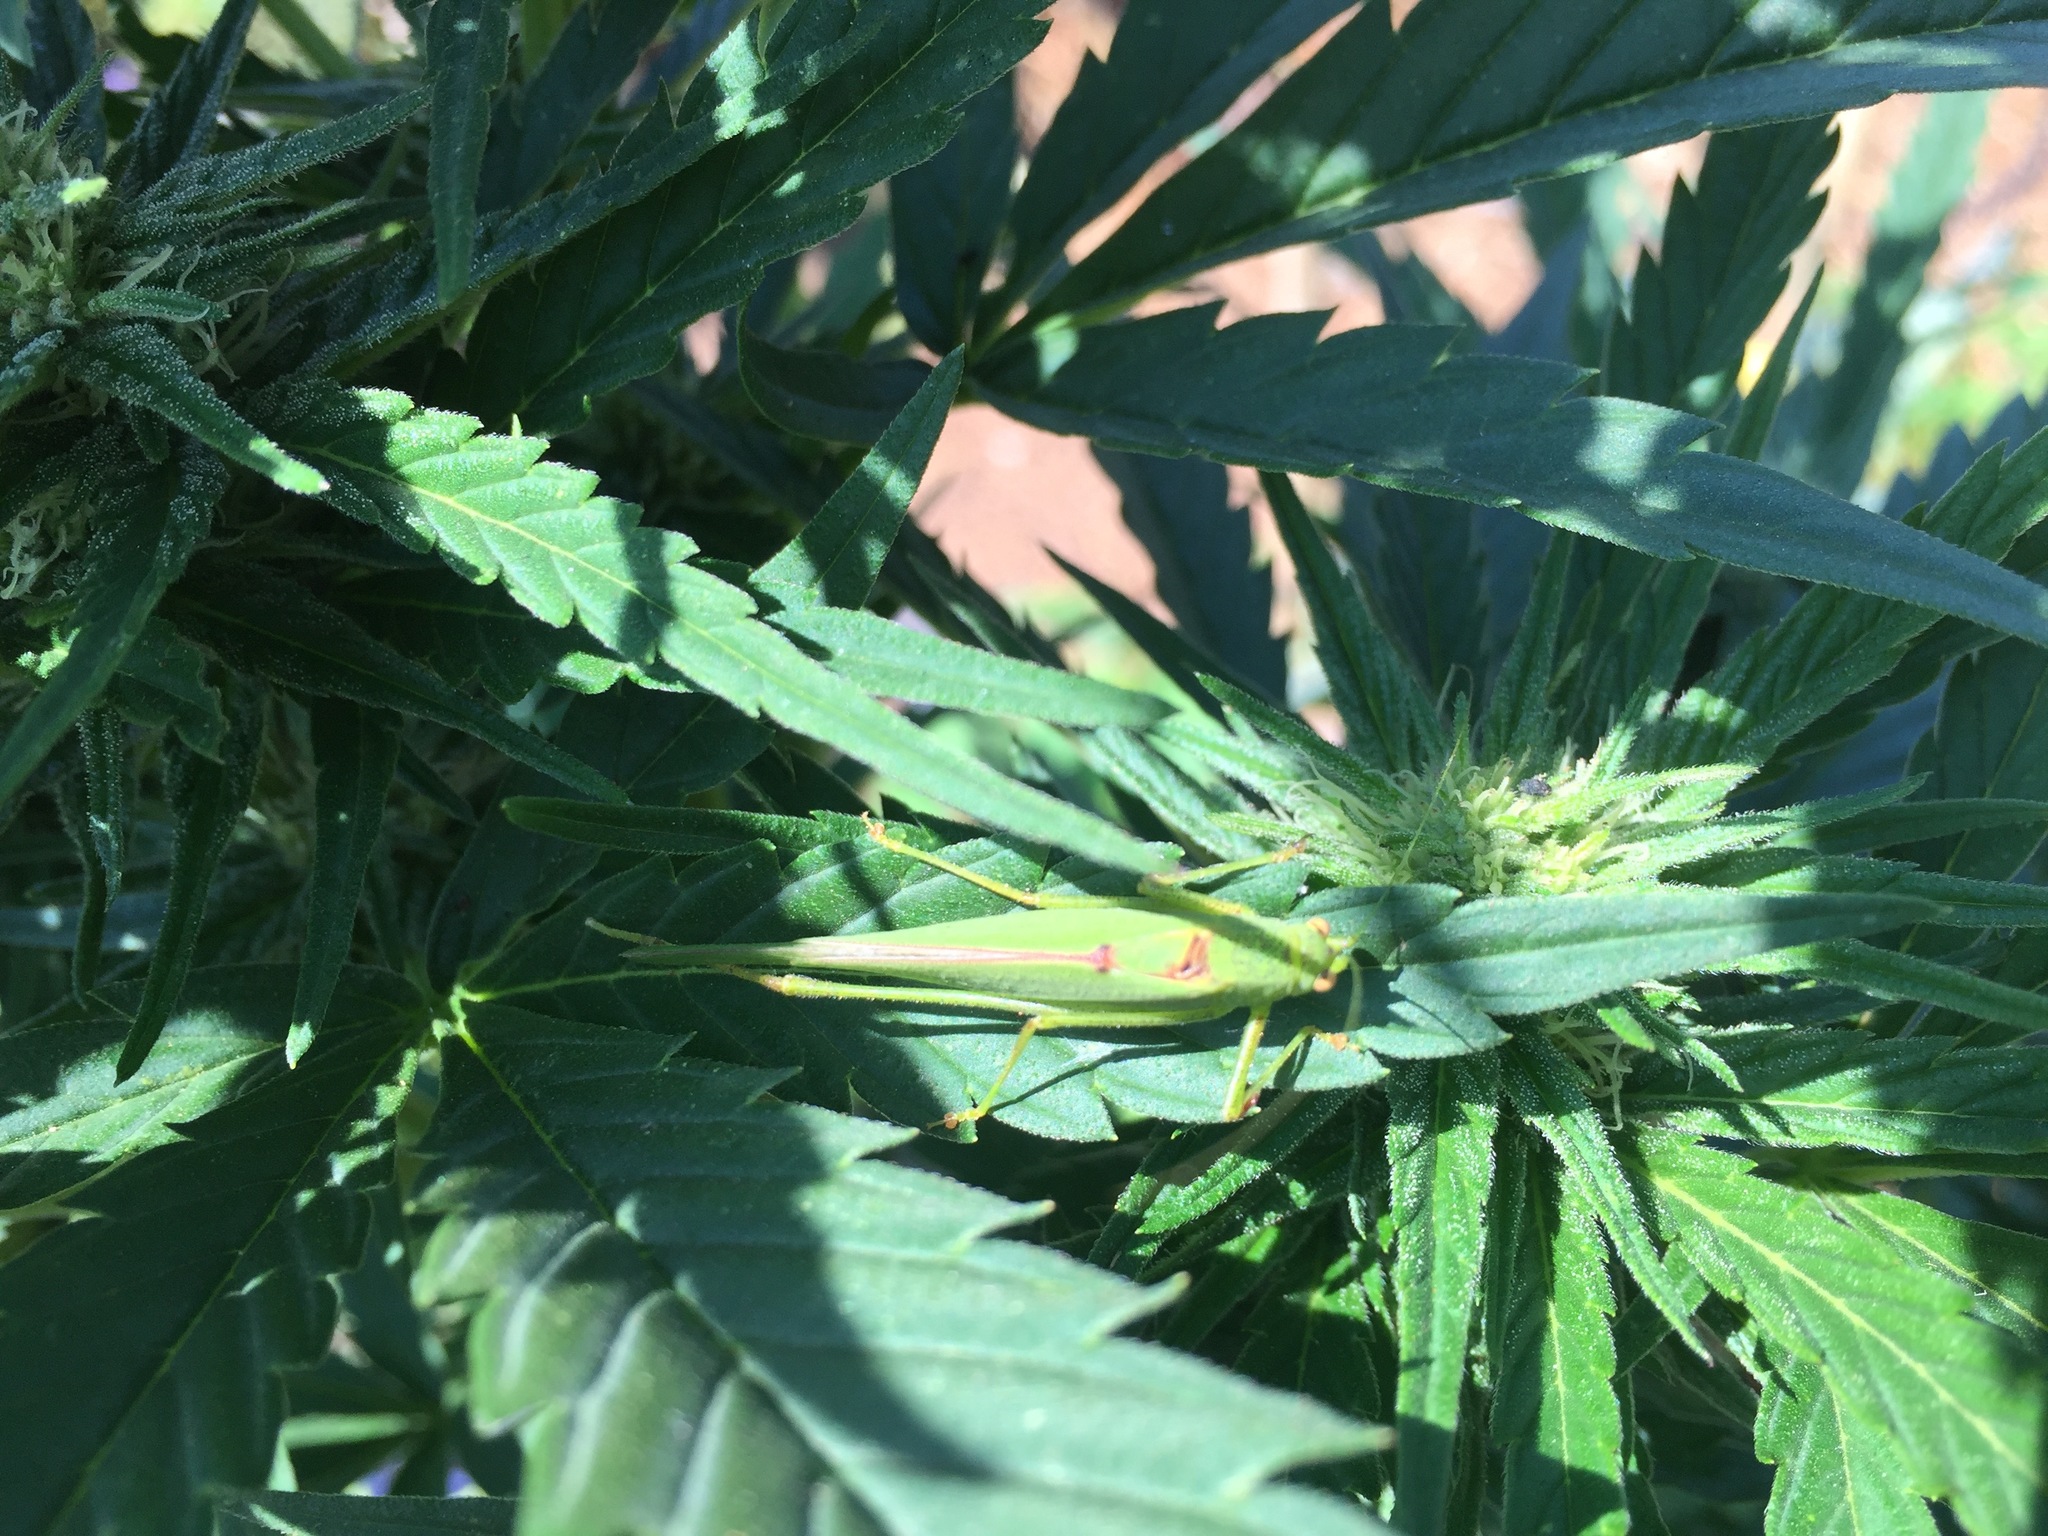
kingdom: Animalia
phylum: Arthropoda
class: Insecta
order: Orthoptera
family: Tettigoniidae
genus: Phaneroptera
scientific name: Phaneroptera nana
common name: Southern sickle bush-cricket
